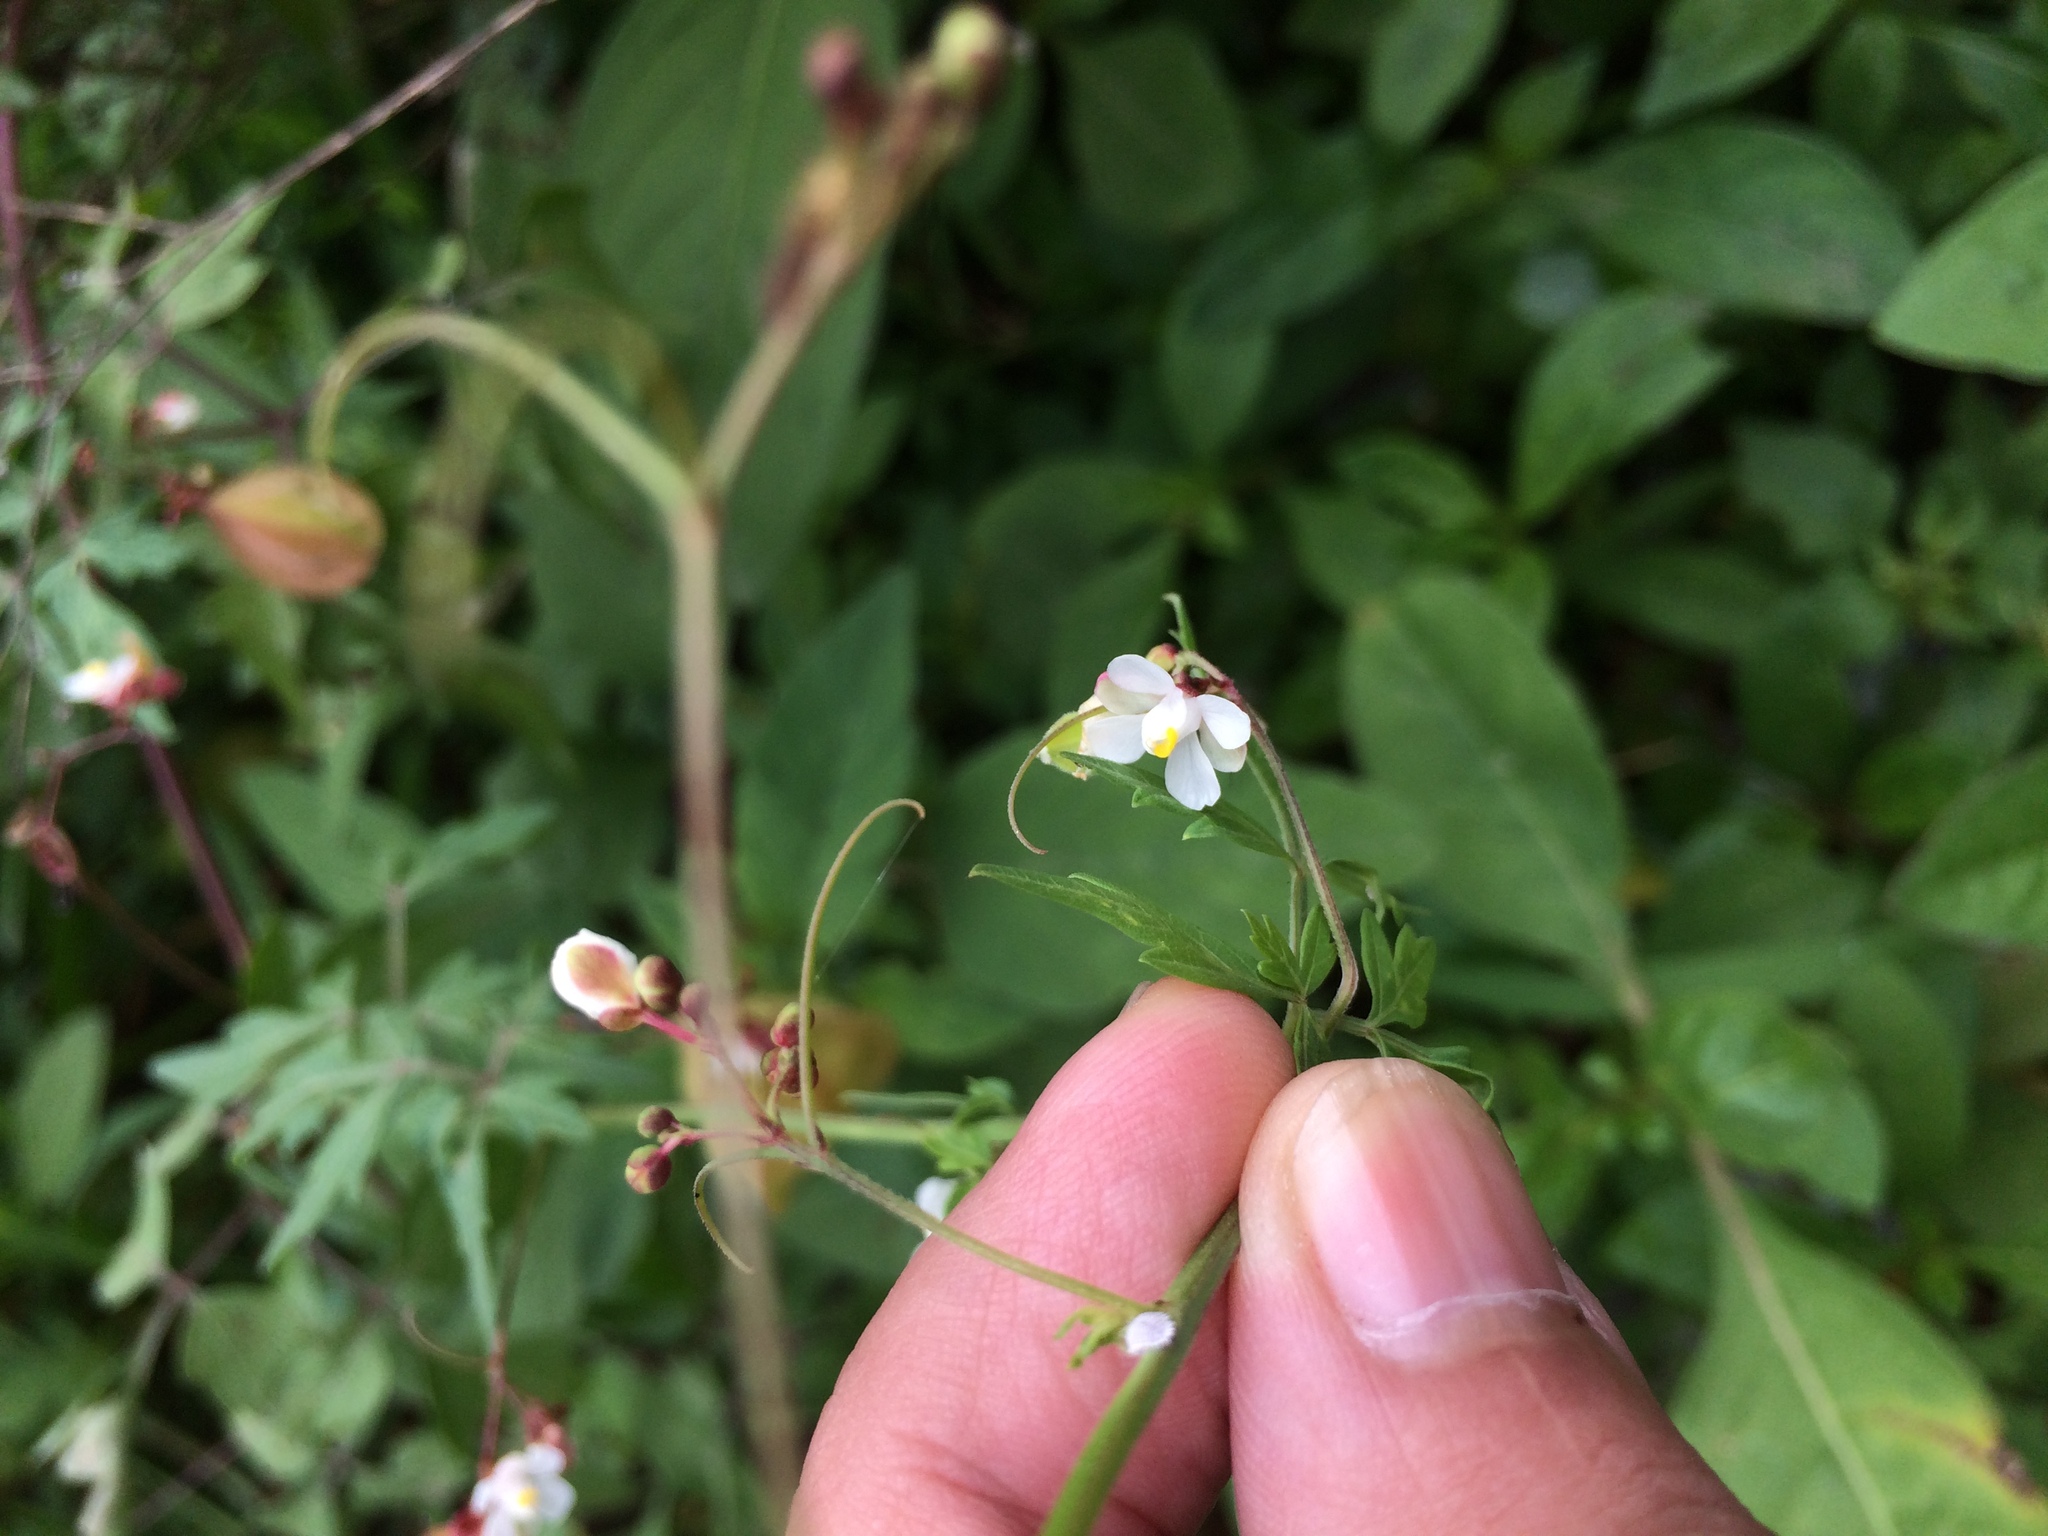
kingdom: Plantae
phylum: Tracheophyta
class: Magnoliopsida
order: Sapindales
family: Sapindaceae
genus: Cardiospermum
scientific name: Cardiospermum halicacabum
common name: Balloon vine
